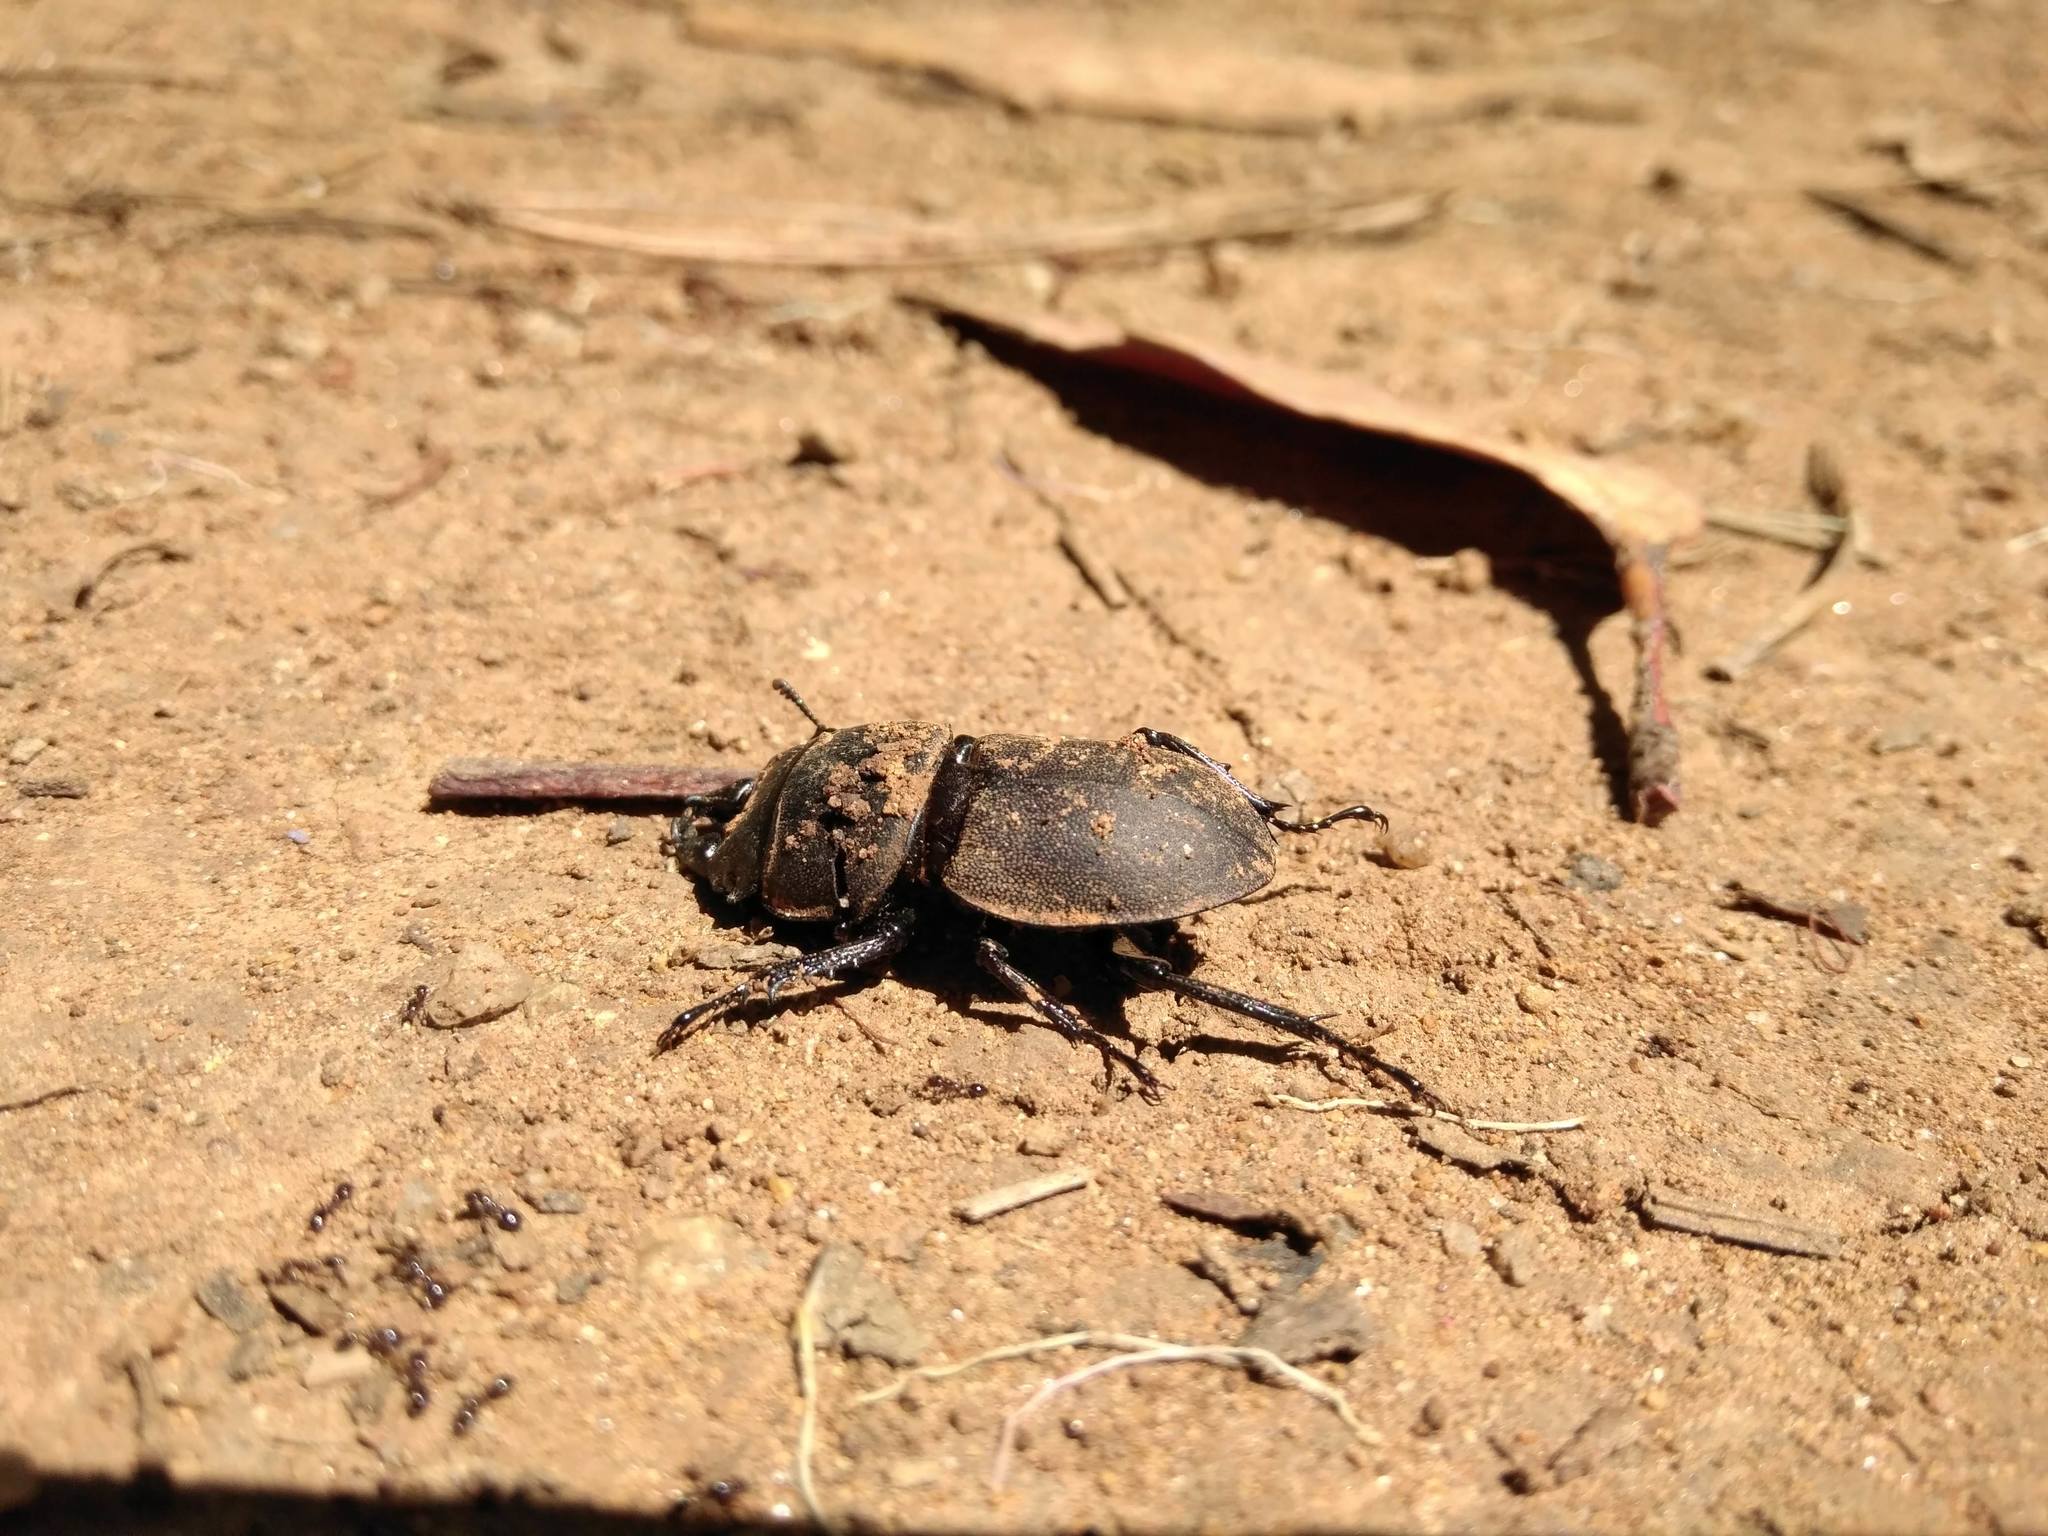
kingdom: Animalia
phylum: Arthropoda
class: Insecta
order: Coleoptera
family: Lucanidae
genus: Apterodorcus
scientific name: Apterodorcus bacchus
